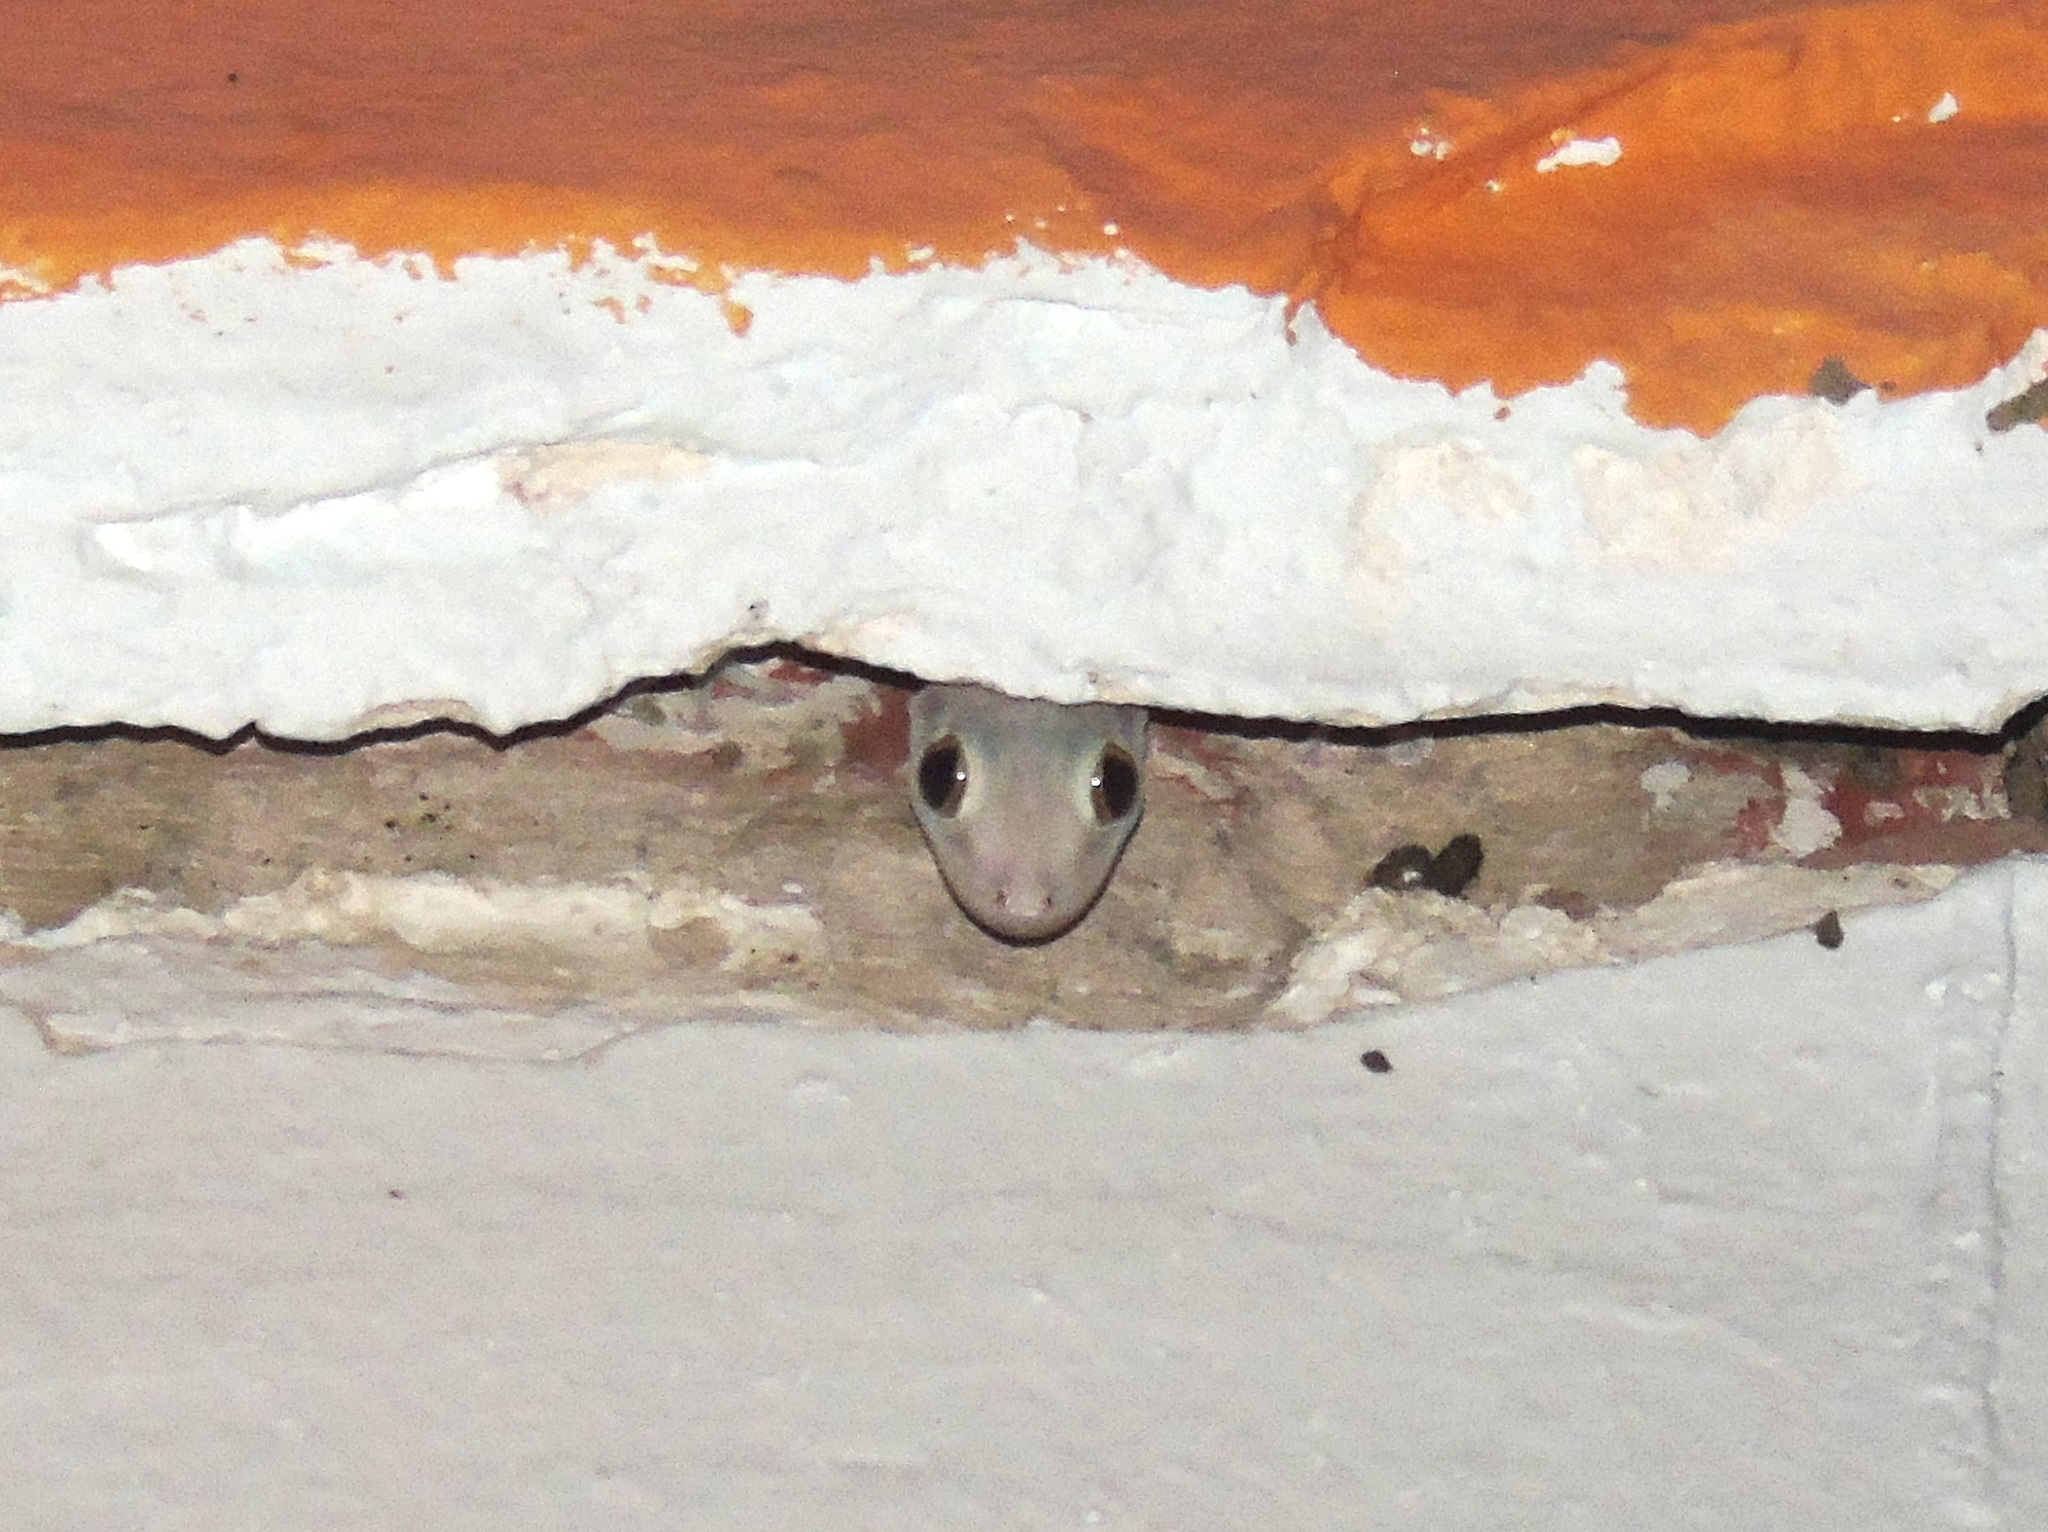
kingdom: Animalia
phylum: Chordata
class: Squamata
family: Phyllodactylidae
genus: Ptyodactylus
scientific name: Ptyodactylus hasselquistii
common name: Hasselquist’s fan-footed gecko
